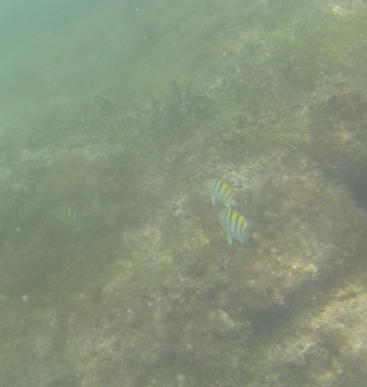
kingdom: Animalia
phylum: Chordata
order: Perciformes
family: Pomacentridae
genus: Abudefduf
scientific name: Abudefduf troschelii
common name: Panamic sergeant major
